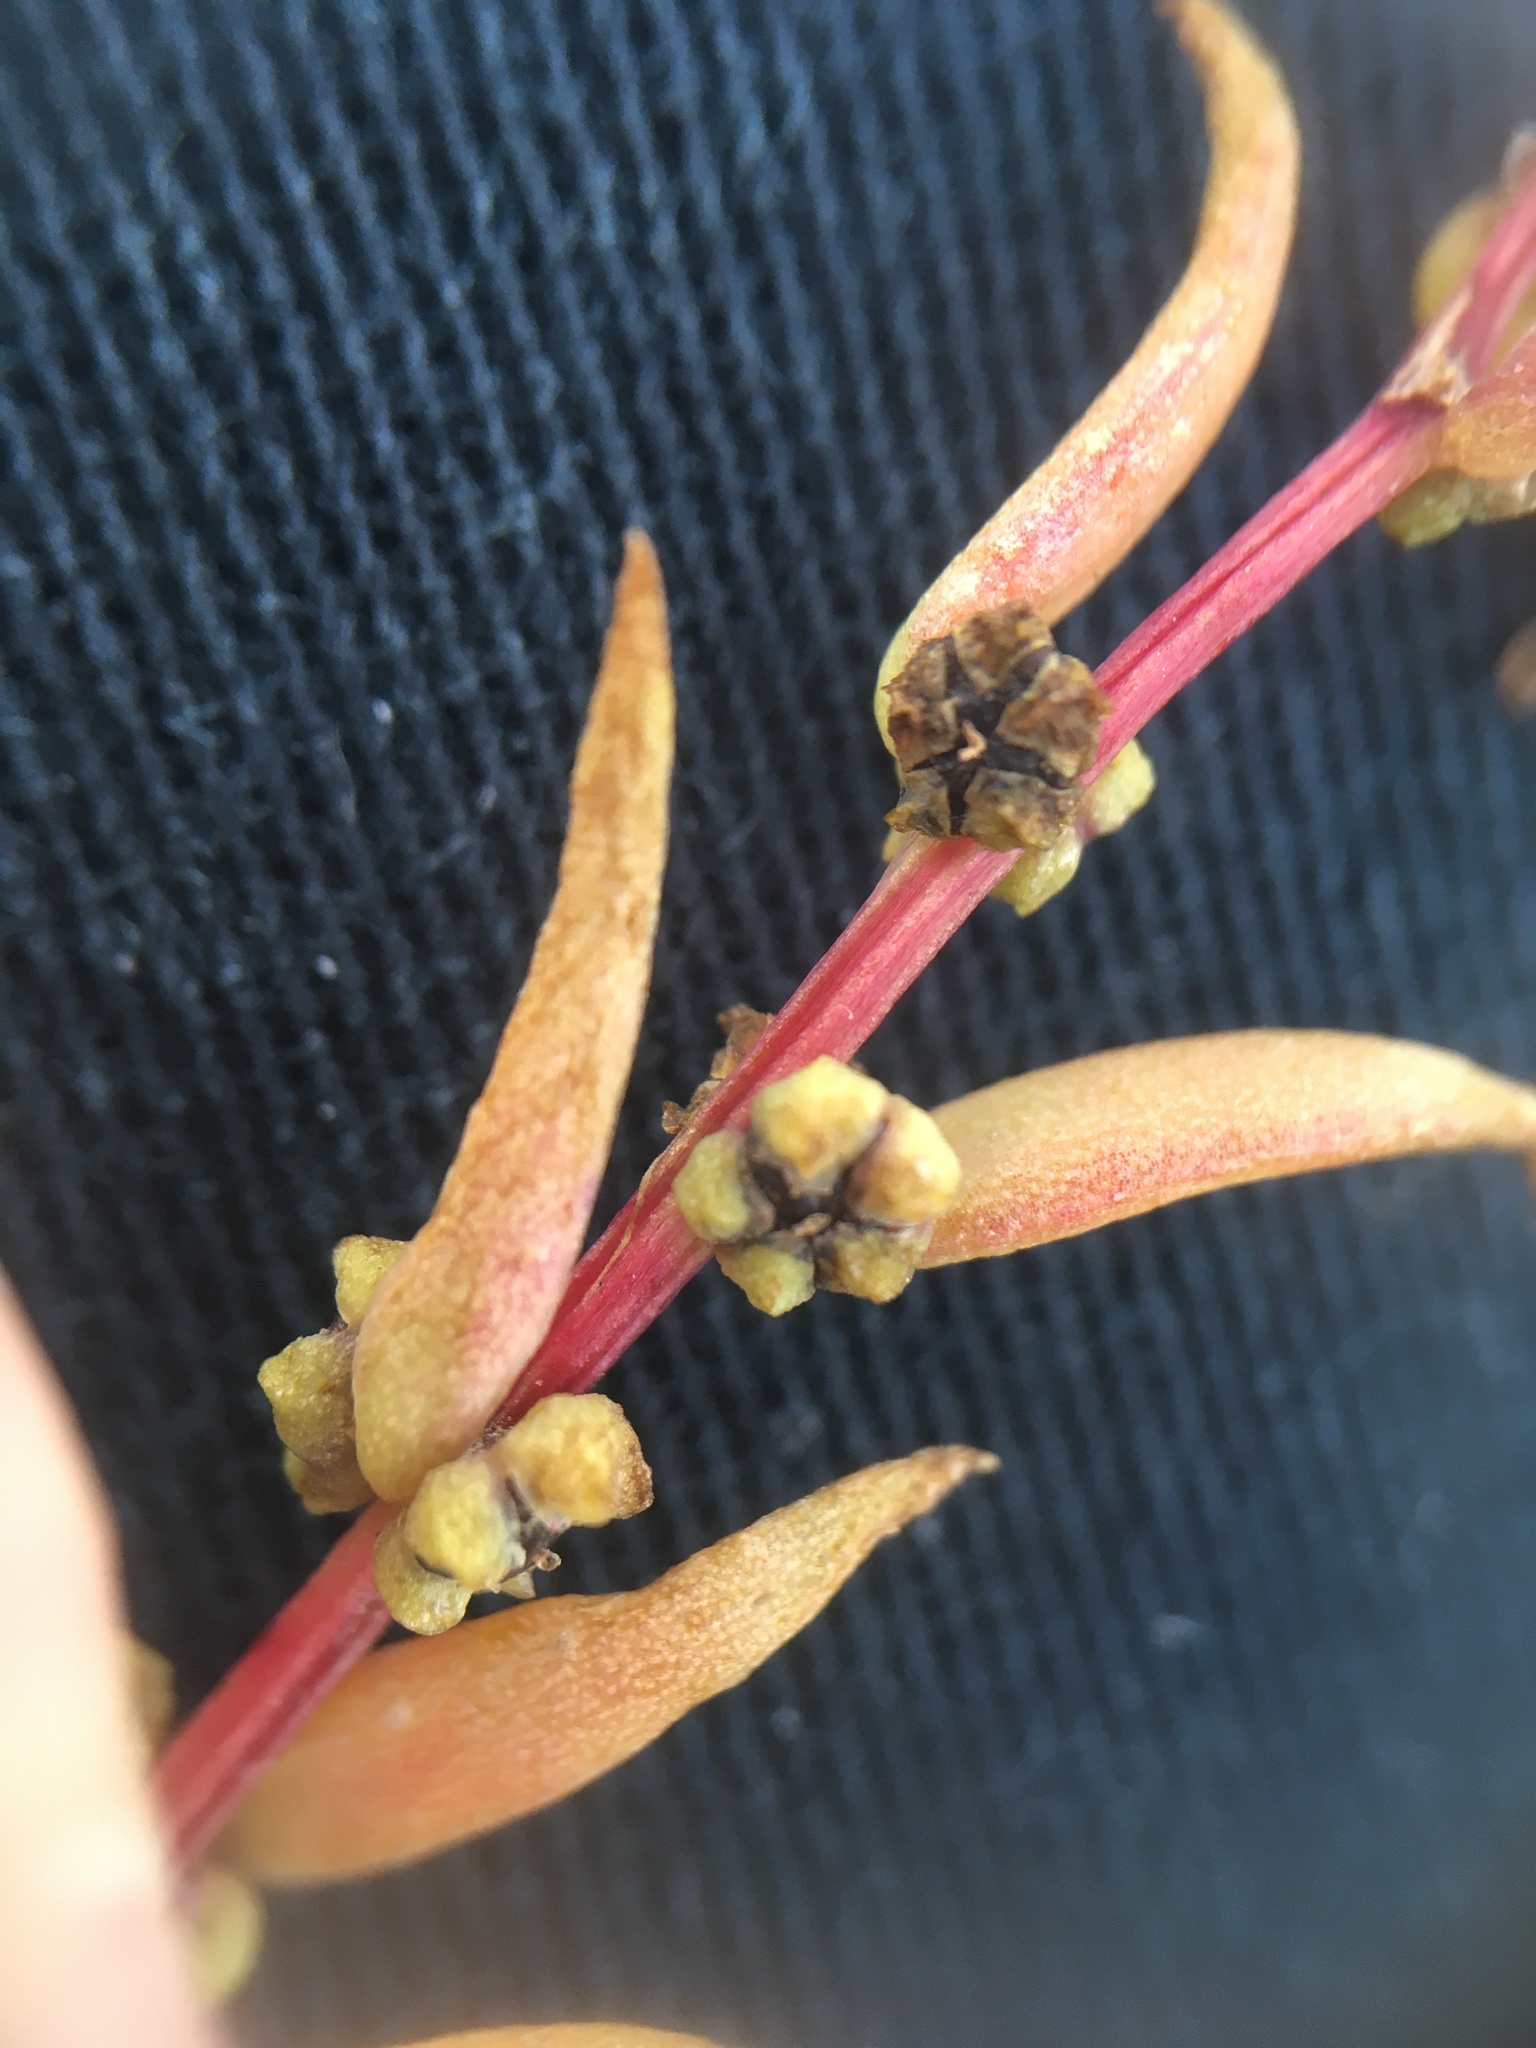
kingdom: Plantae
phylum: Tracheophyta
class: Magnoliopsida
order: Caryophyllales
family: Amaranthaceae
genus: Suaeda
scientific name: Suaeda maritima
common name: Annual sea-blite
